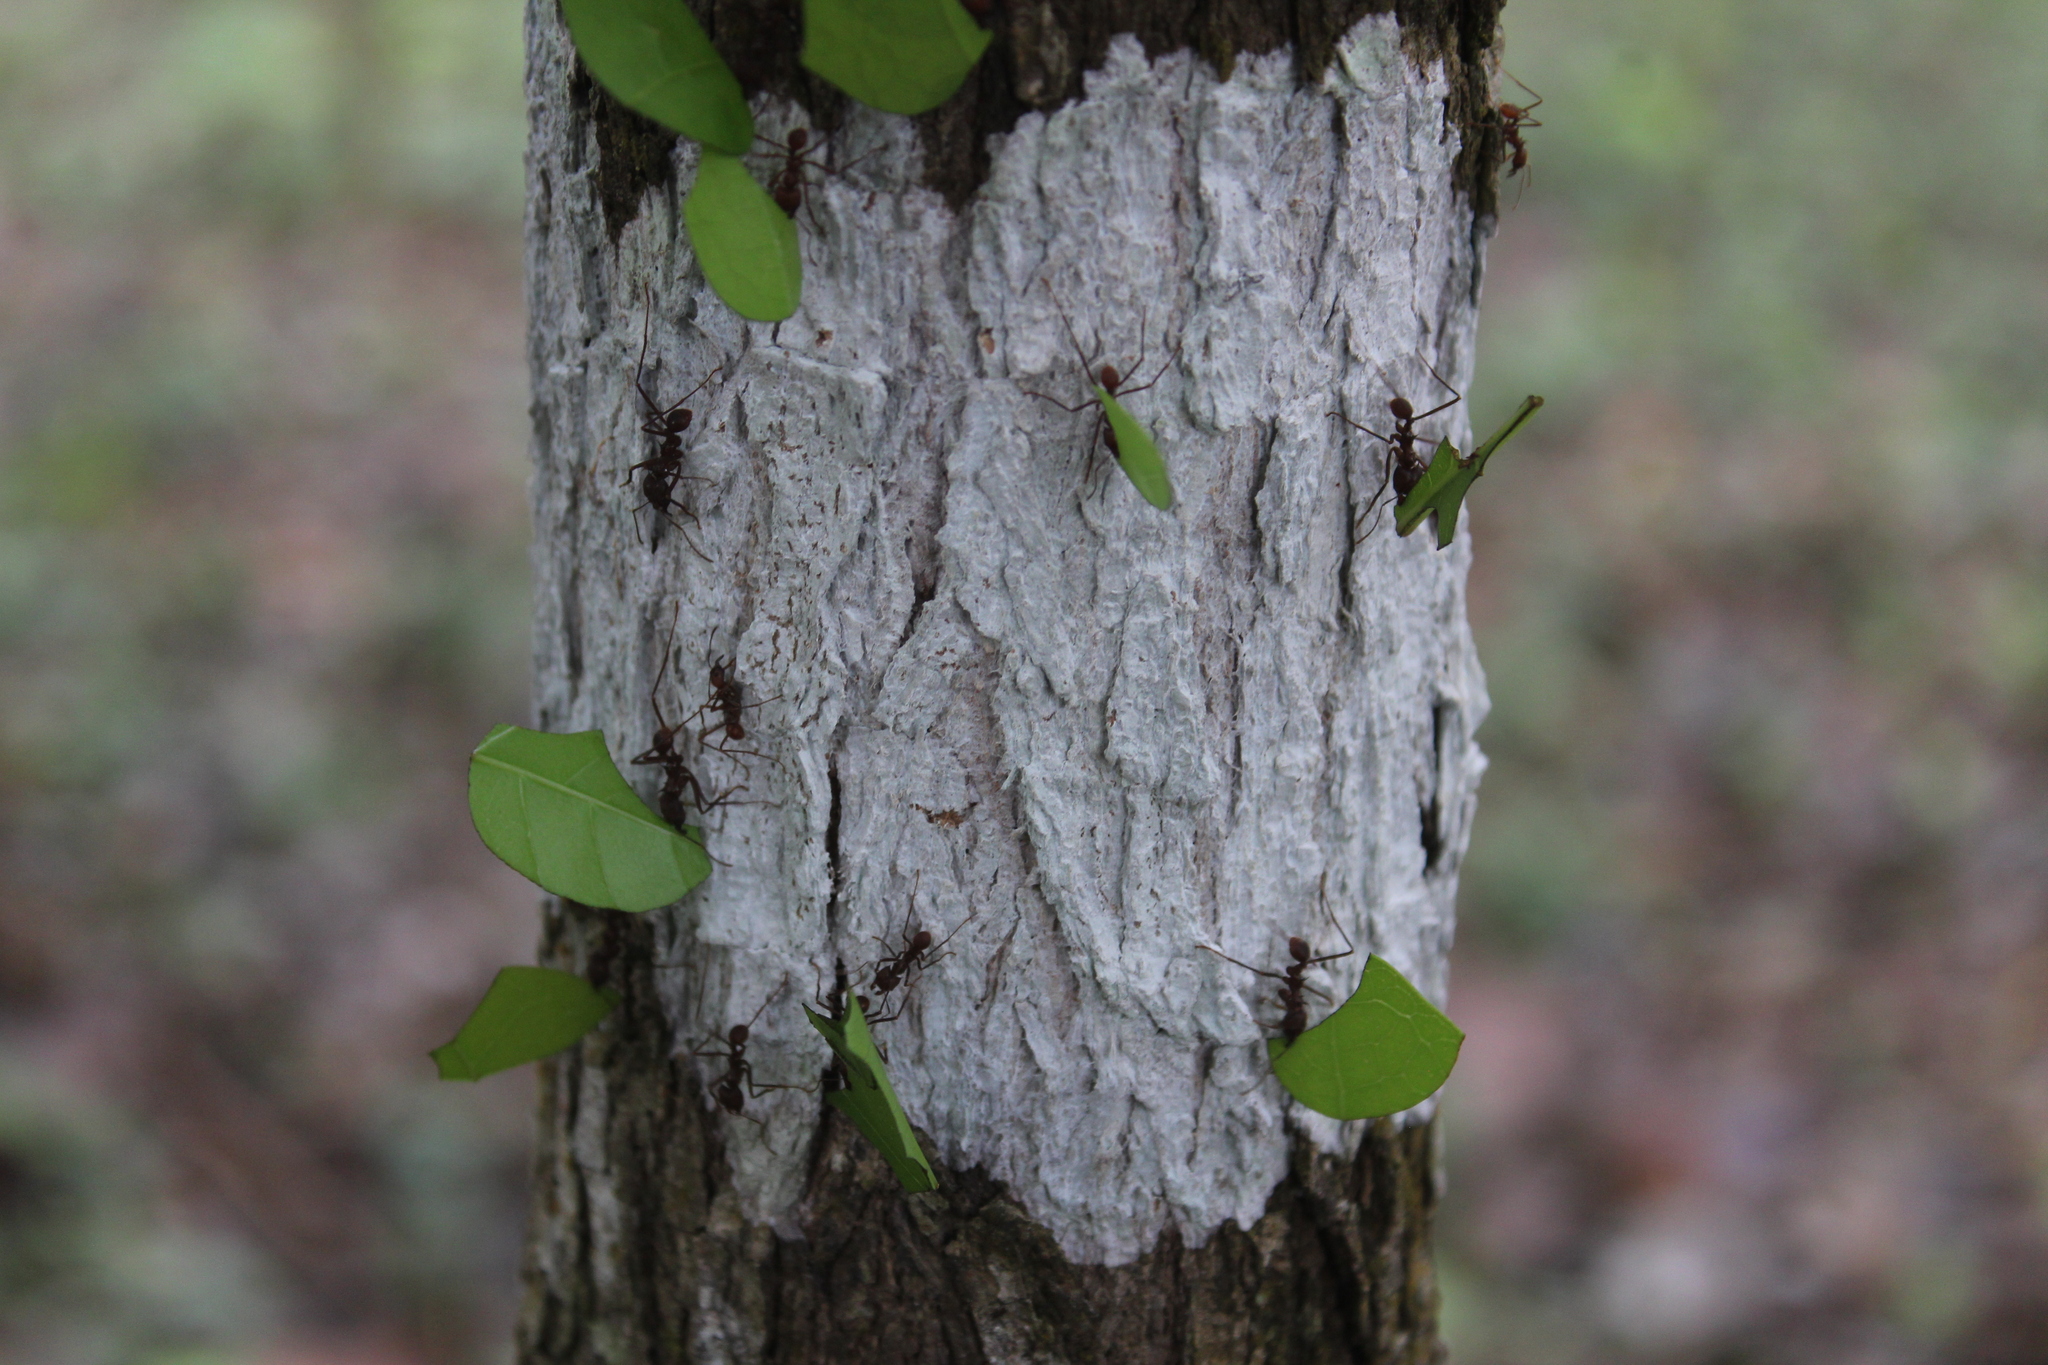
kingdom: Animalia
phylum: Arthropoda
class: Insecta
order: Hymenoptera
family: Formicidae
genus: Atta
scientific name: Atta cephalotes
